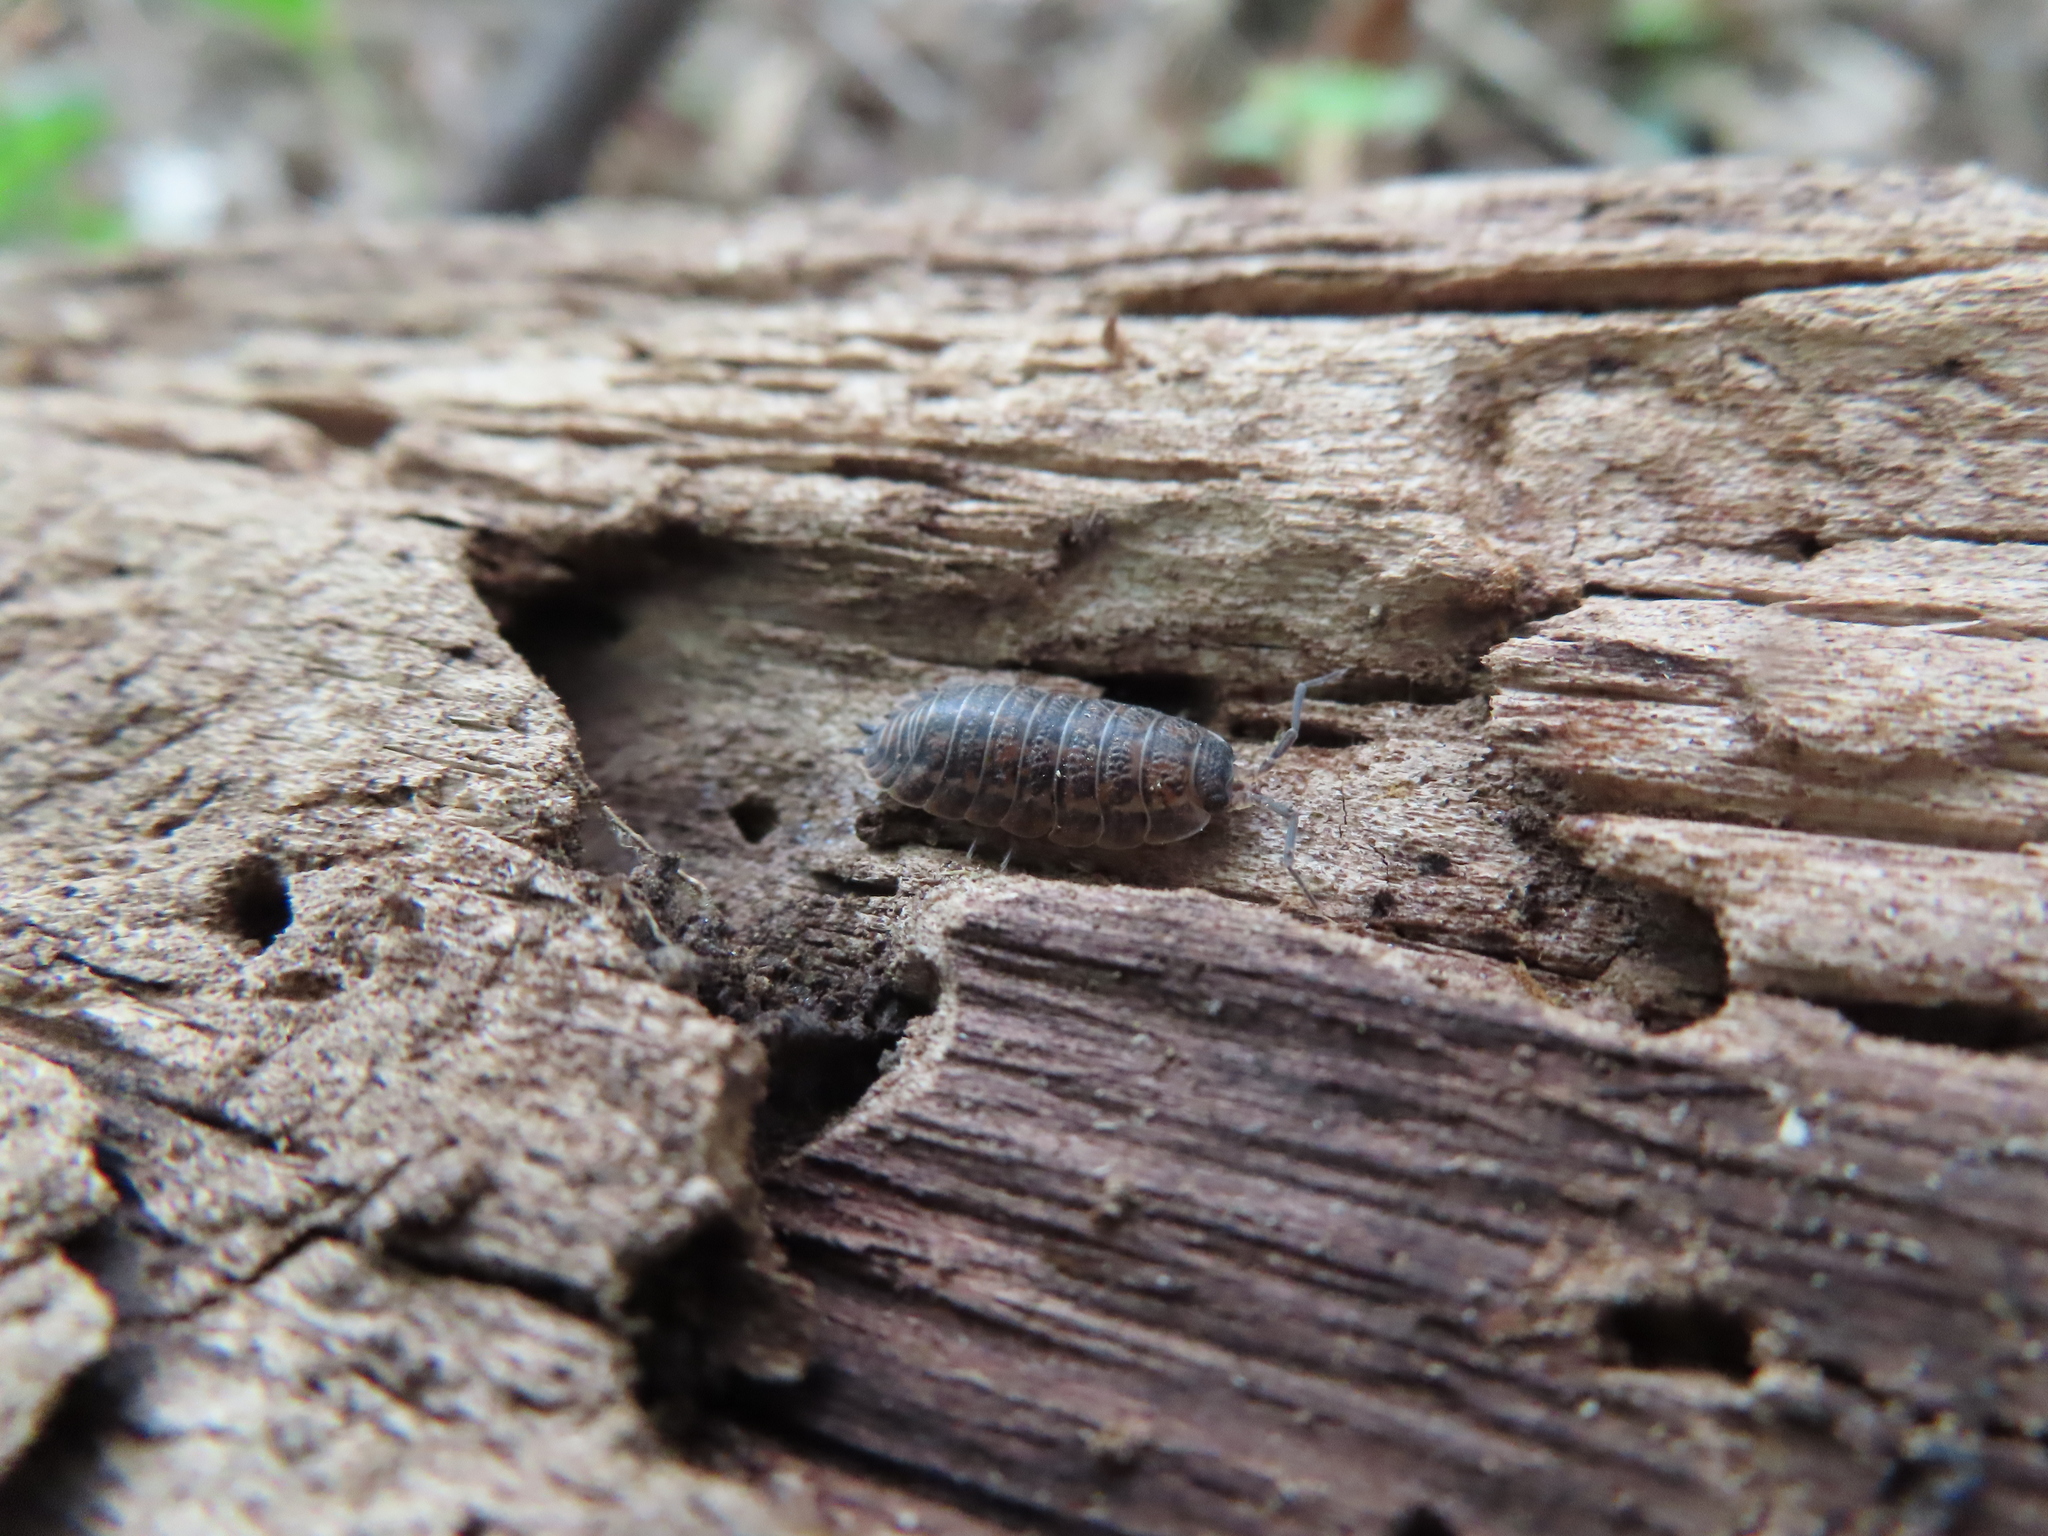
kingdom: Animalia
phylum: Arthropoda
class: Malacostraca
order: Isopoda
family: Trachelipodidae
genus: Trachelipus
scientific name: Trachelipus rathkii
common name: Isopod
